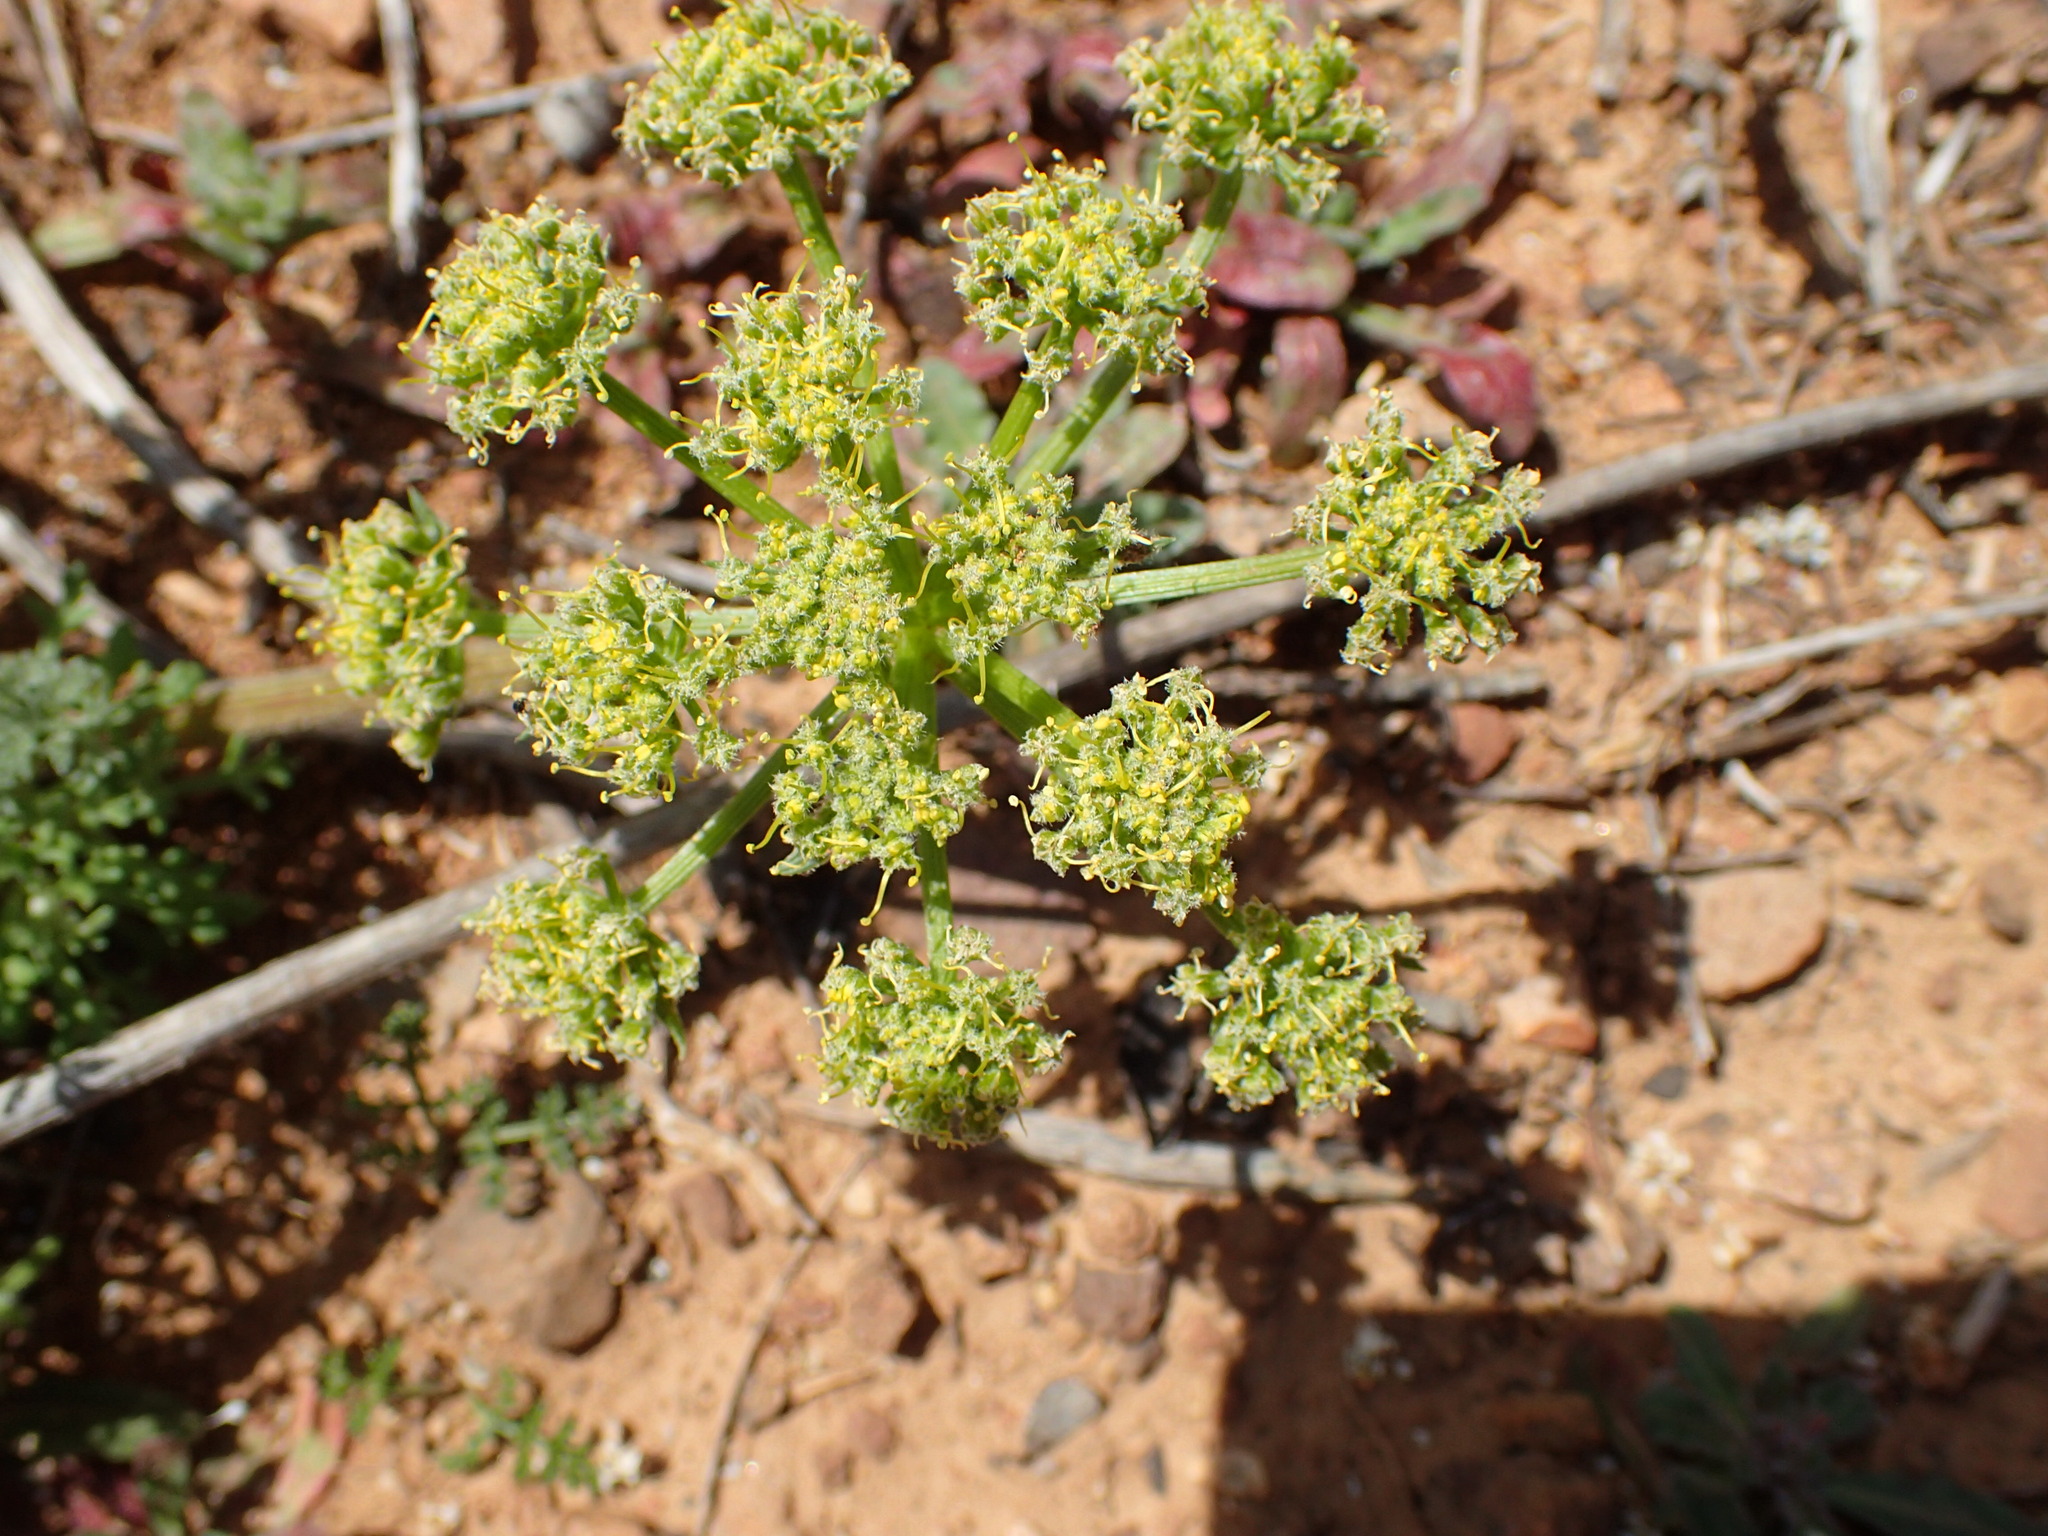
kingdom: Plantae
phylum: Tracheophyta
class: Magnoliopsida
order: Apiales
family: Apiaceae
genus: Lomatium
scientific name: Lomatium dasycarpum
